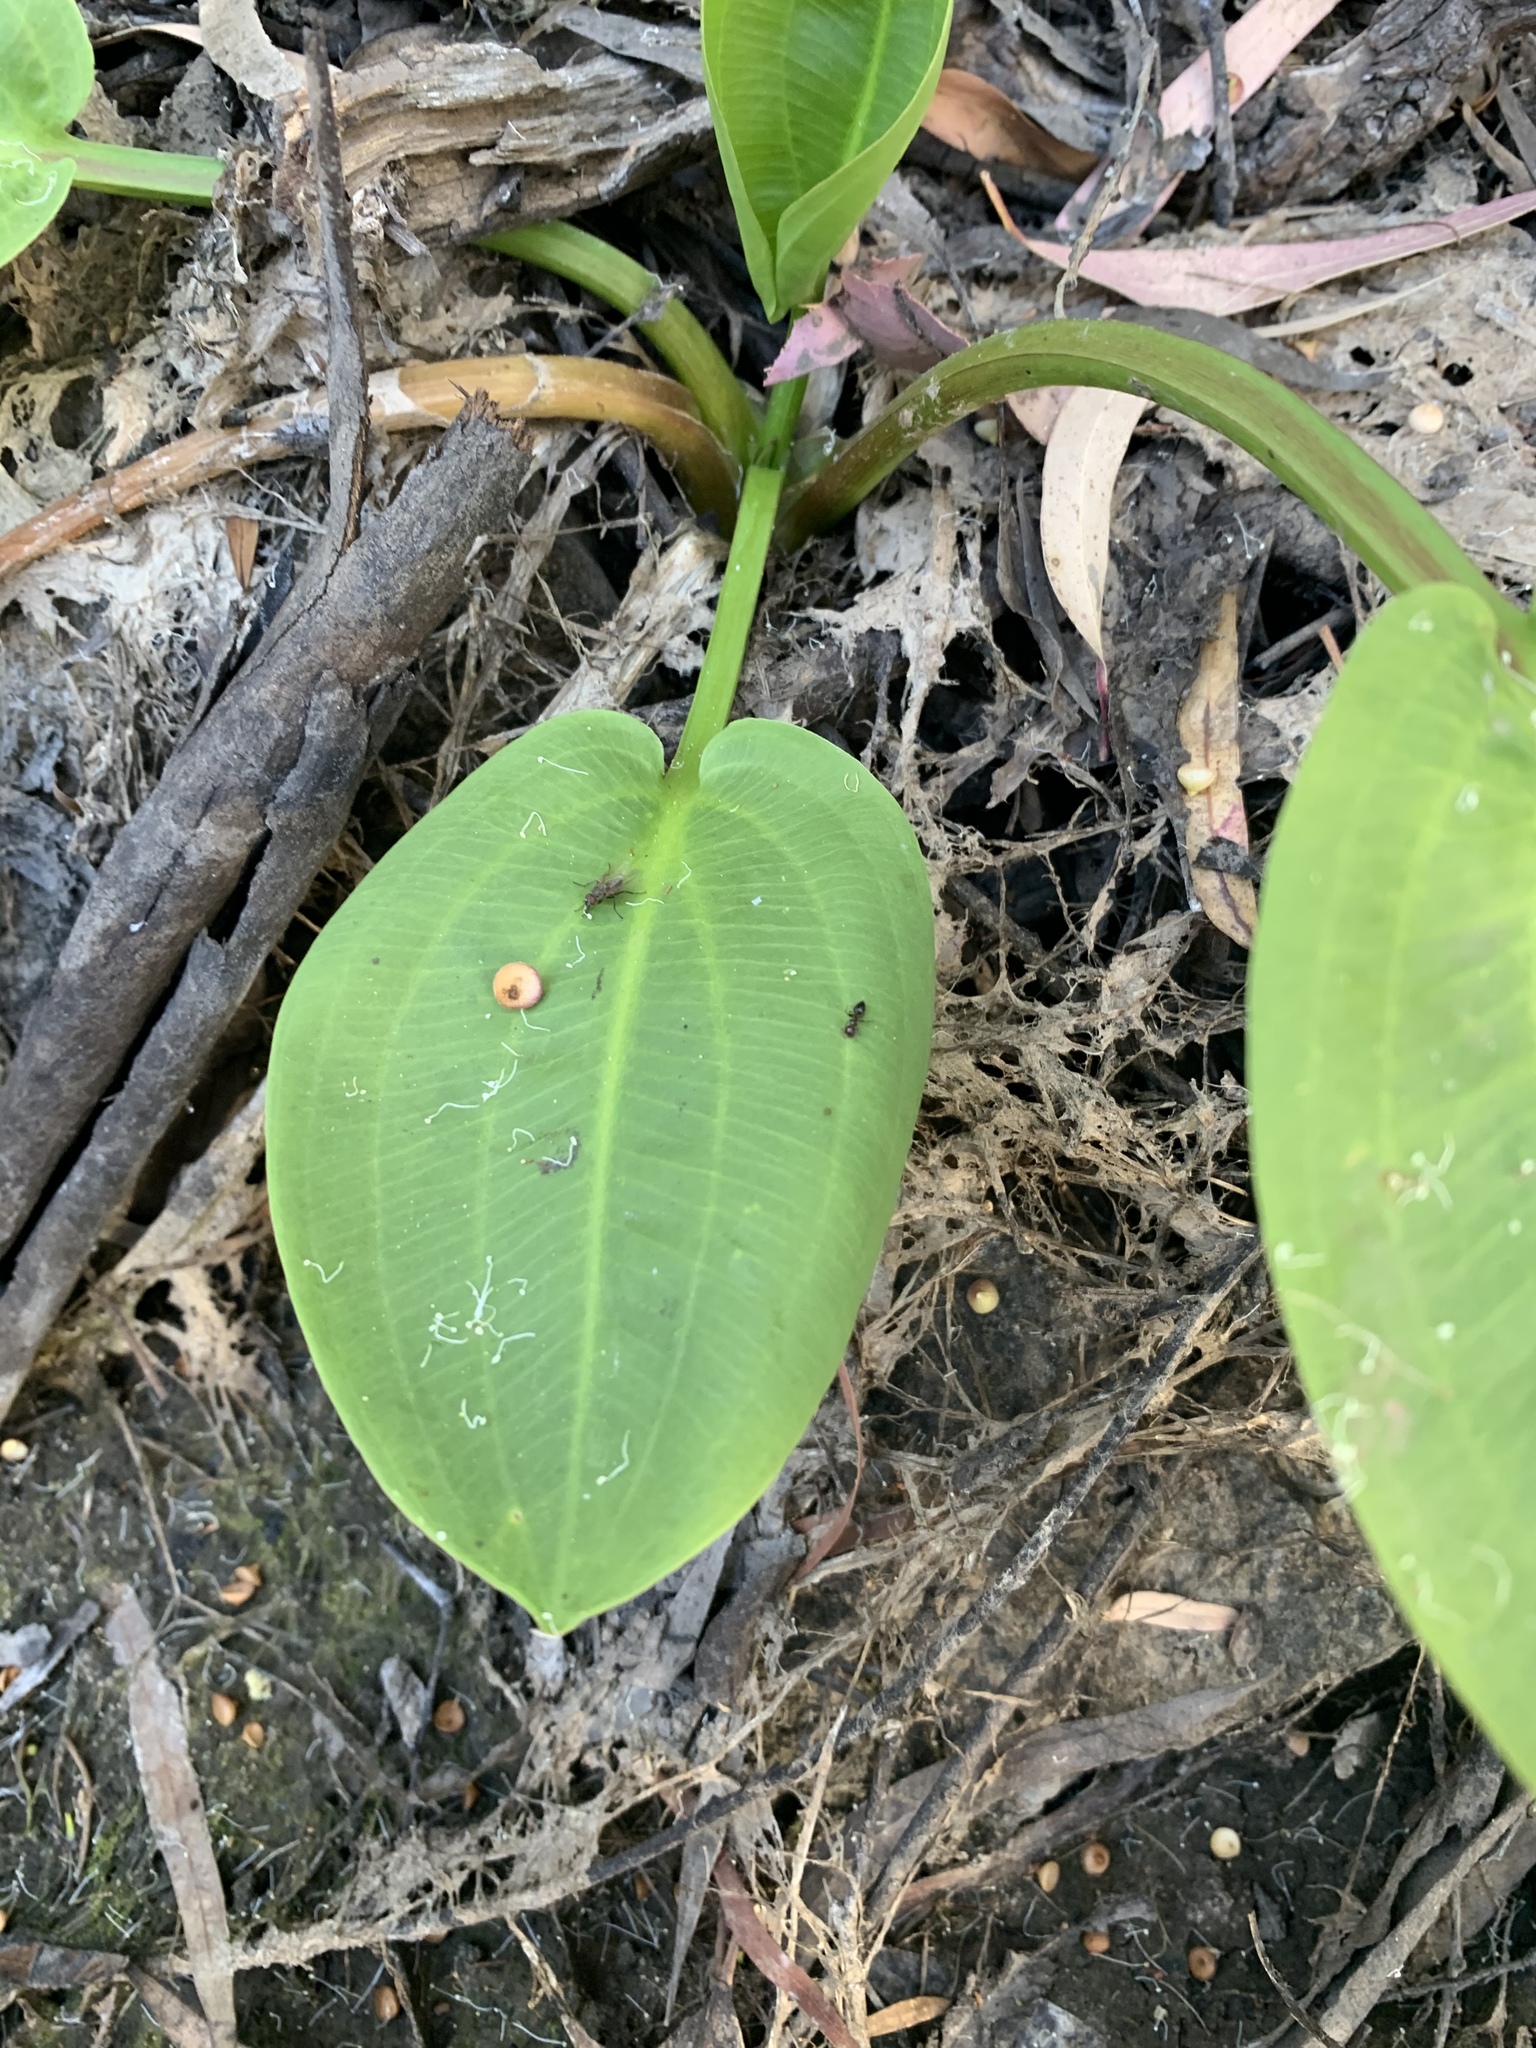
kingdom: Plantae
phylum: Tracheophyta
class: Liliopsida
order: Alismatales
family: Alismataceae
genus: Alisma
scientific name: Alisma plantago-aquatica
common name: Water-plantain
